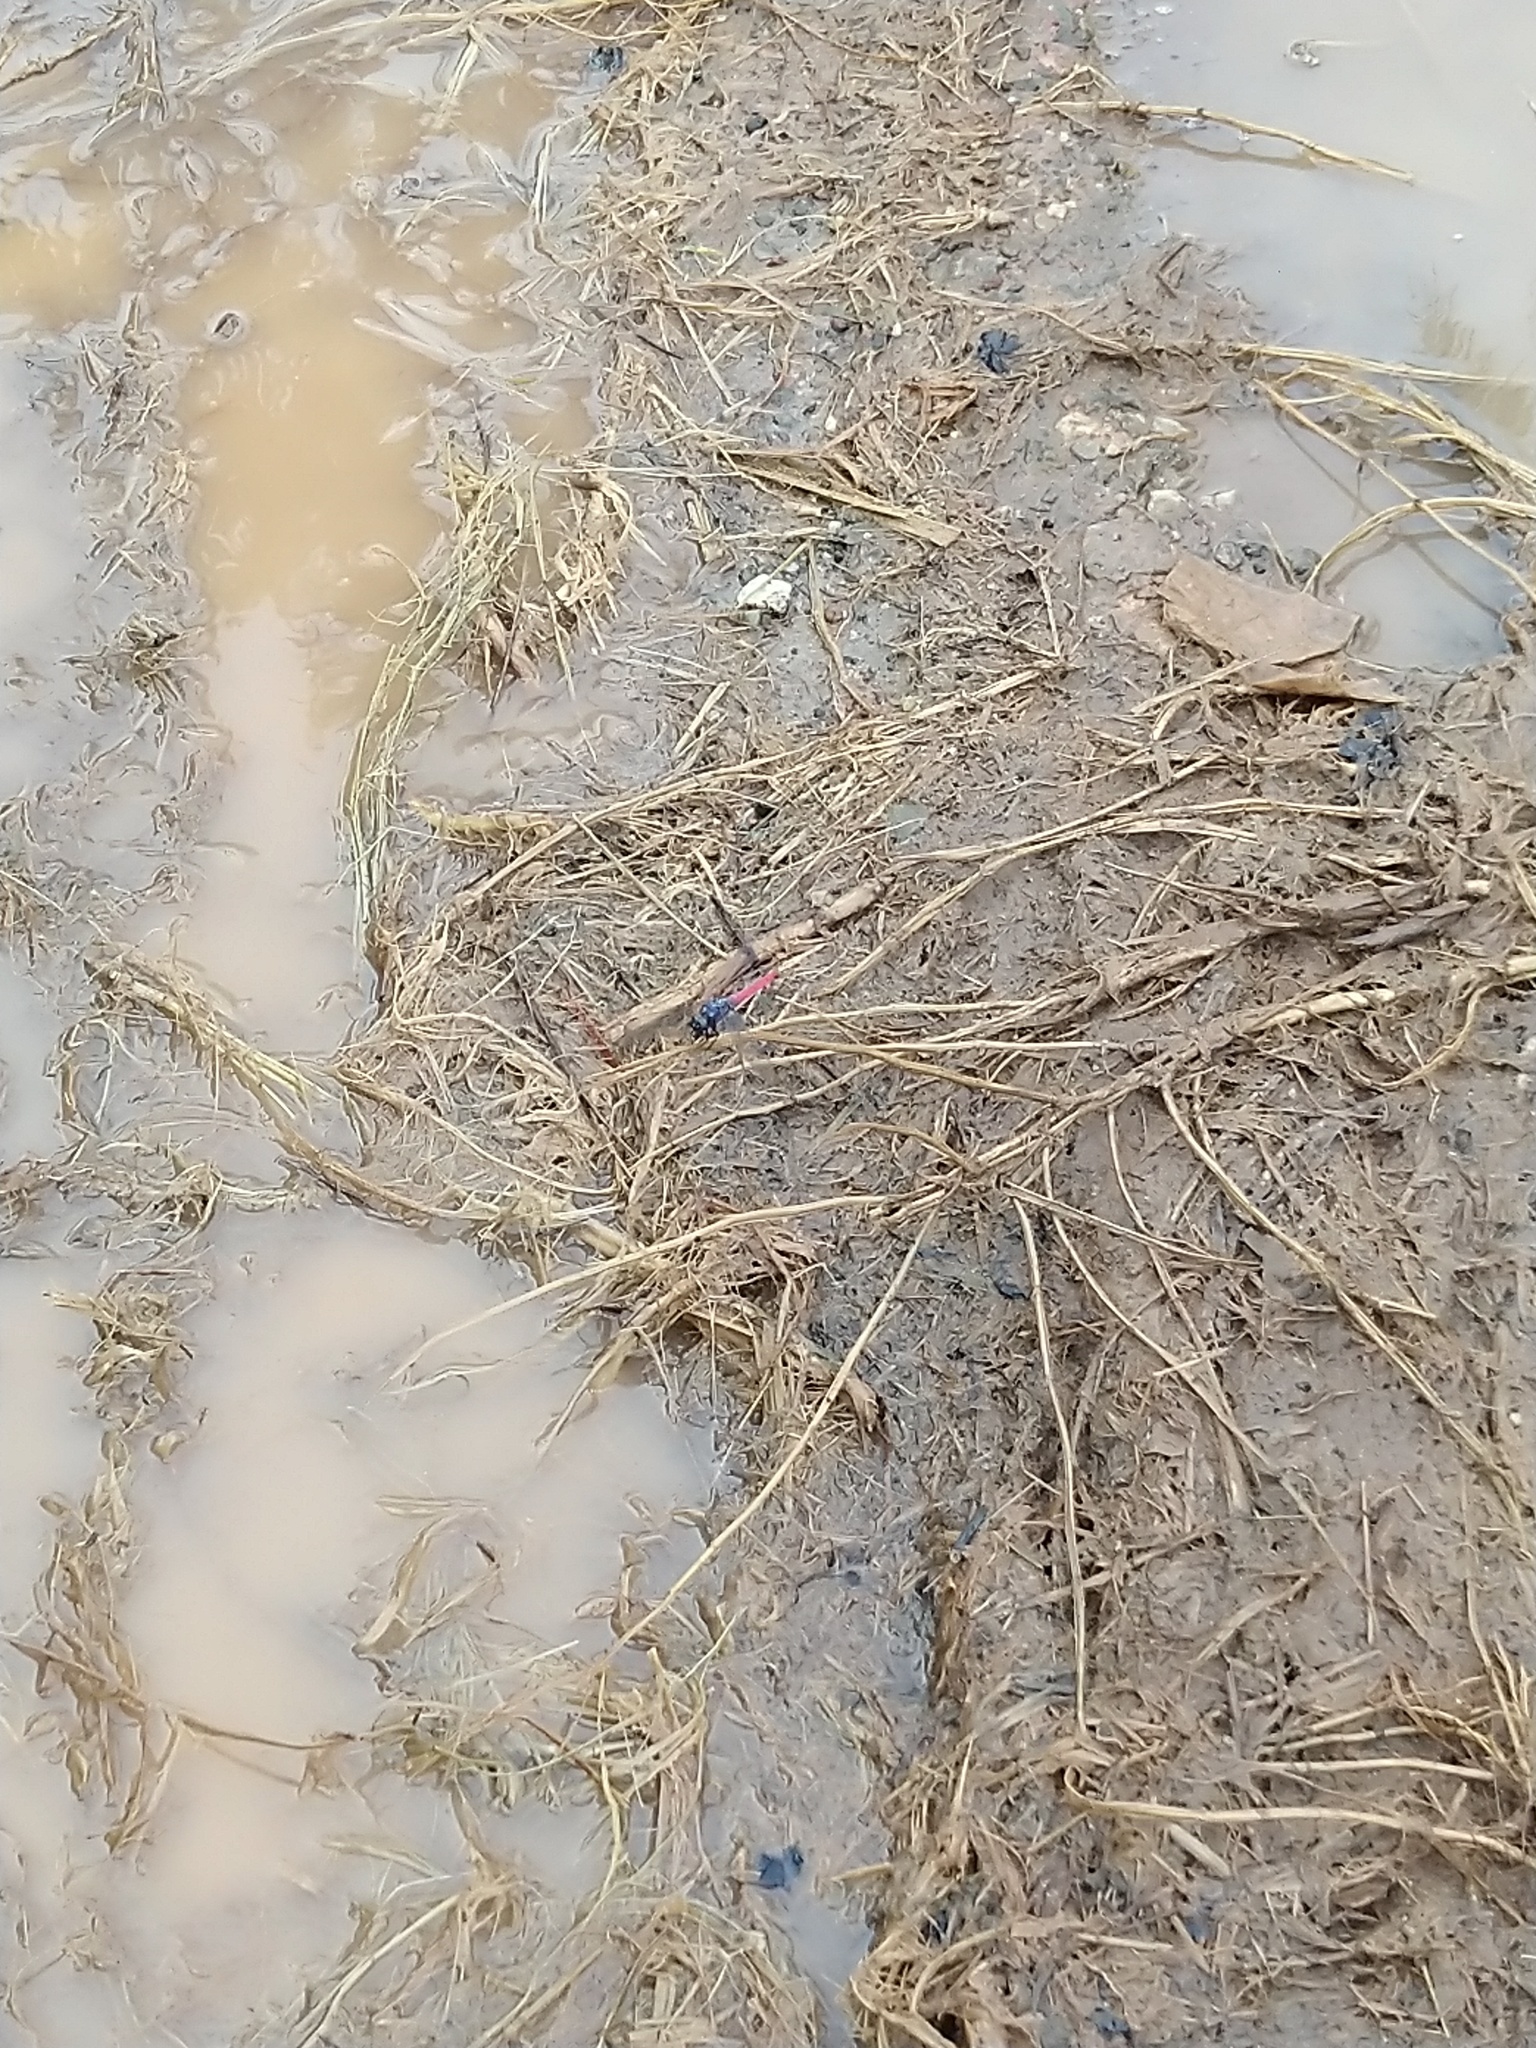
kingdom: Animalia
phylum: Arthropoda
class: Insecta
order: Odonata
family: Libellulidae
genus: Orthetrum
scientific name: Orthetrum pruinosum
